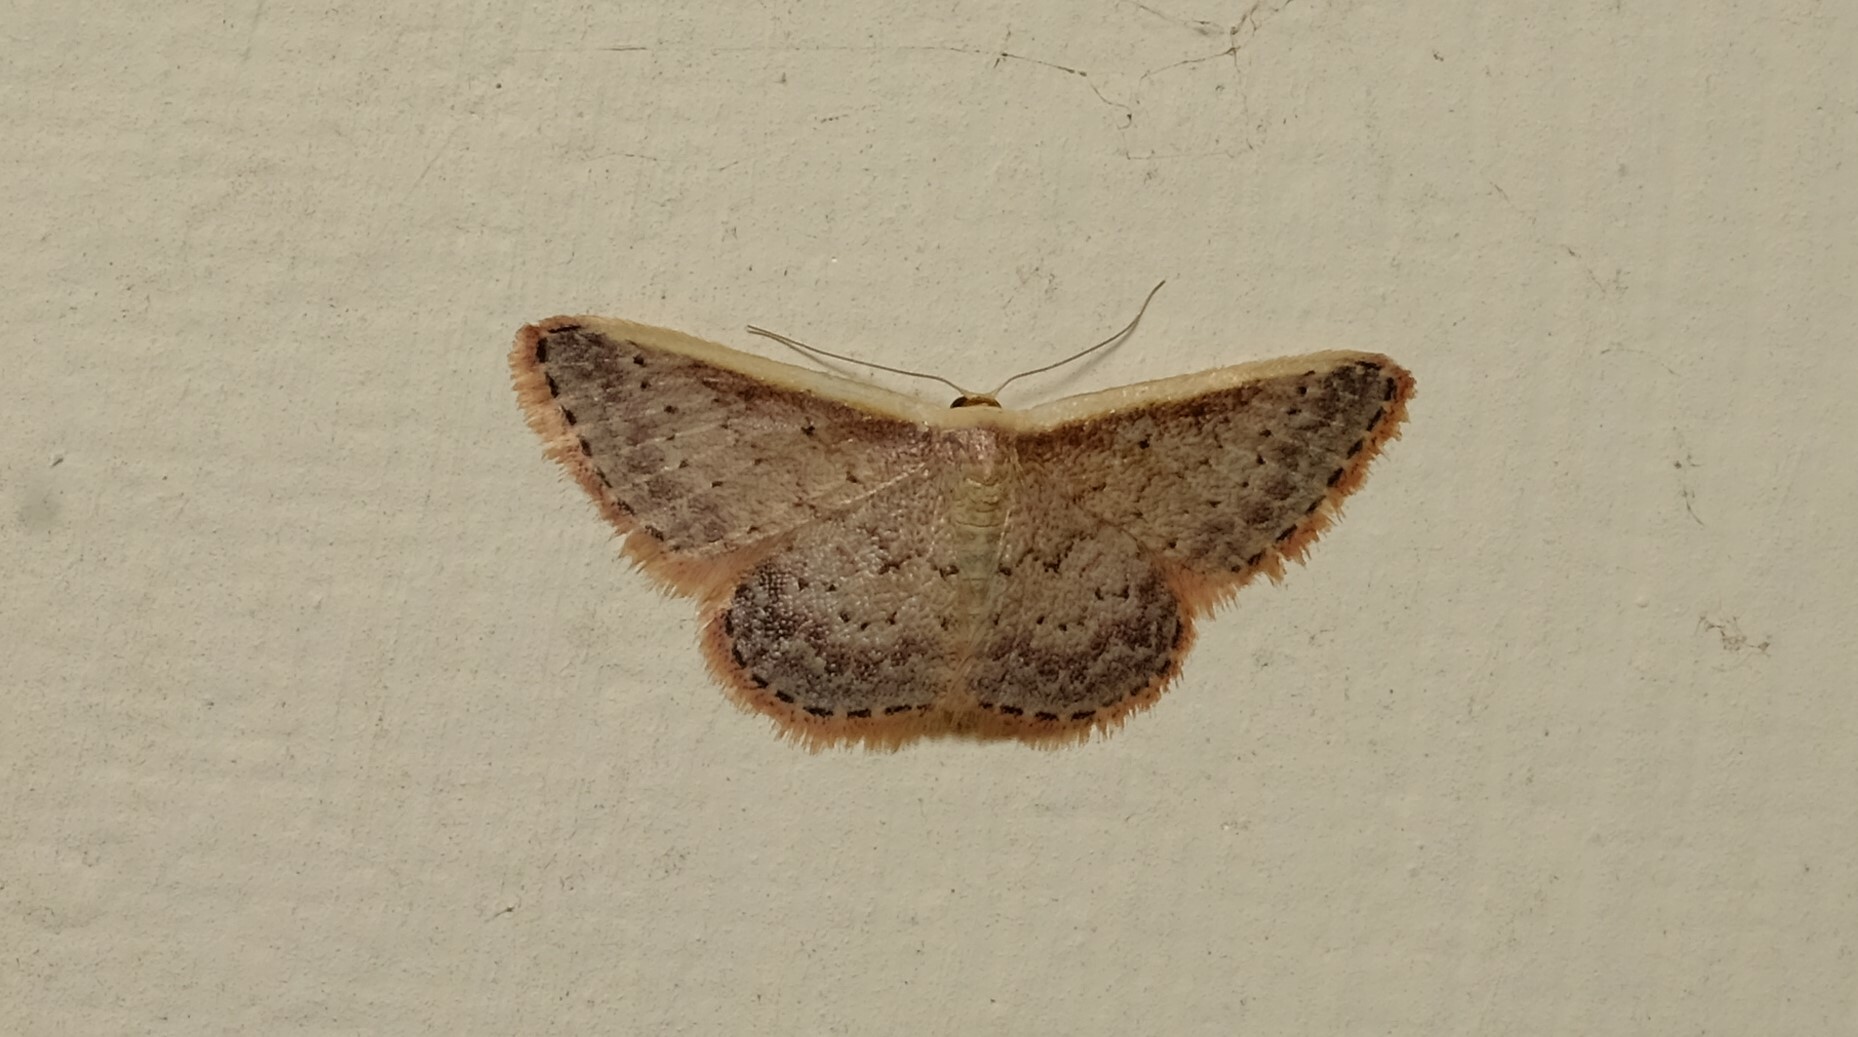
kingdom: Animalia
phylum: Arthropoda
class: Insecta
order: Lepidoptera
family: Geometridae
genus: Idaea
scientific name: Idaea nephelota
